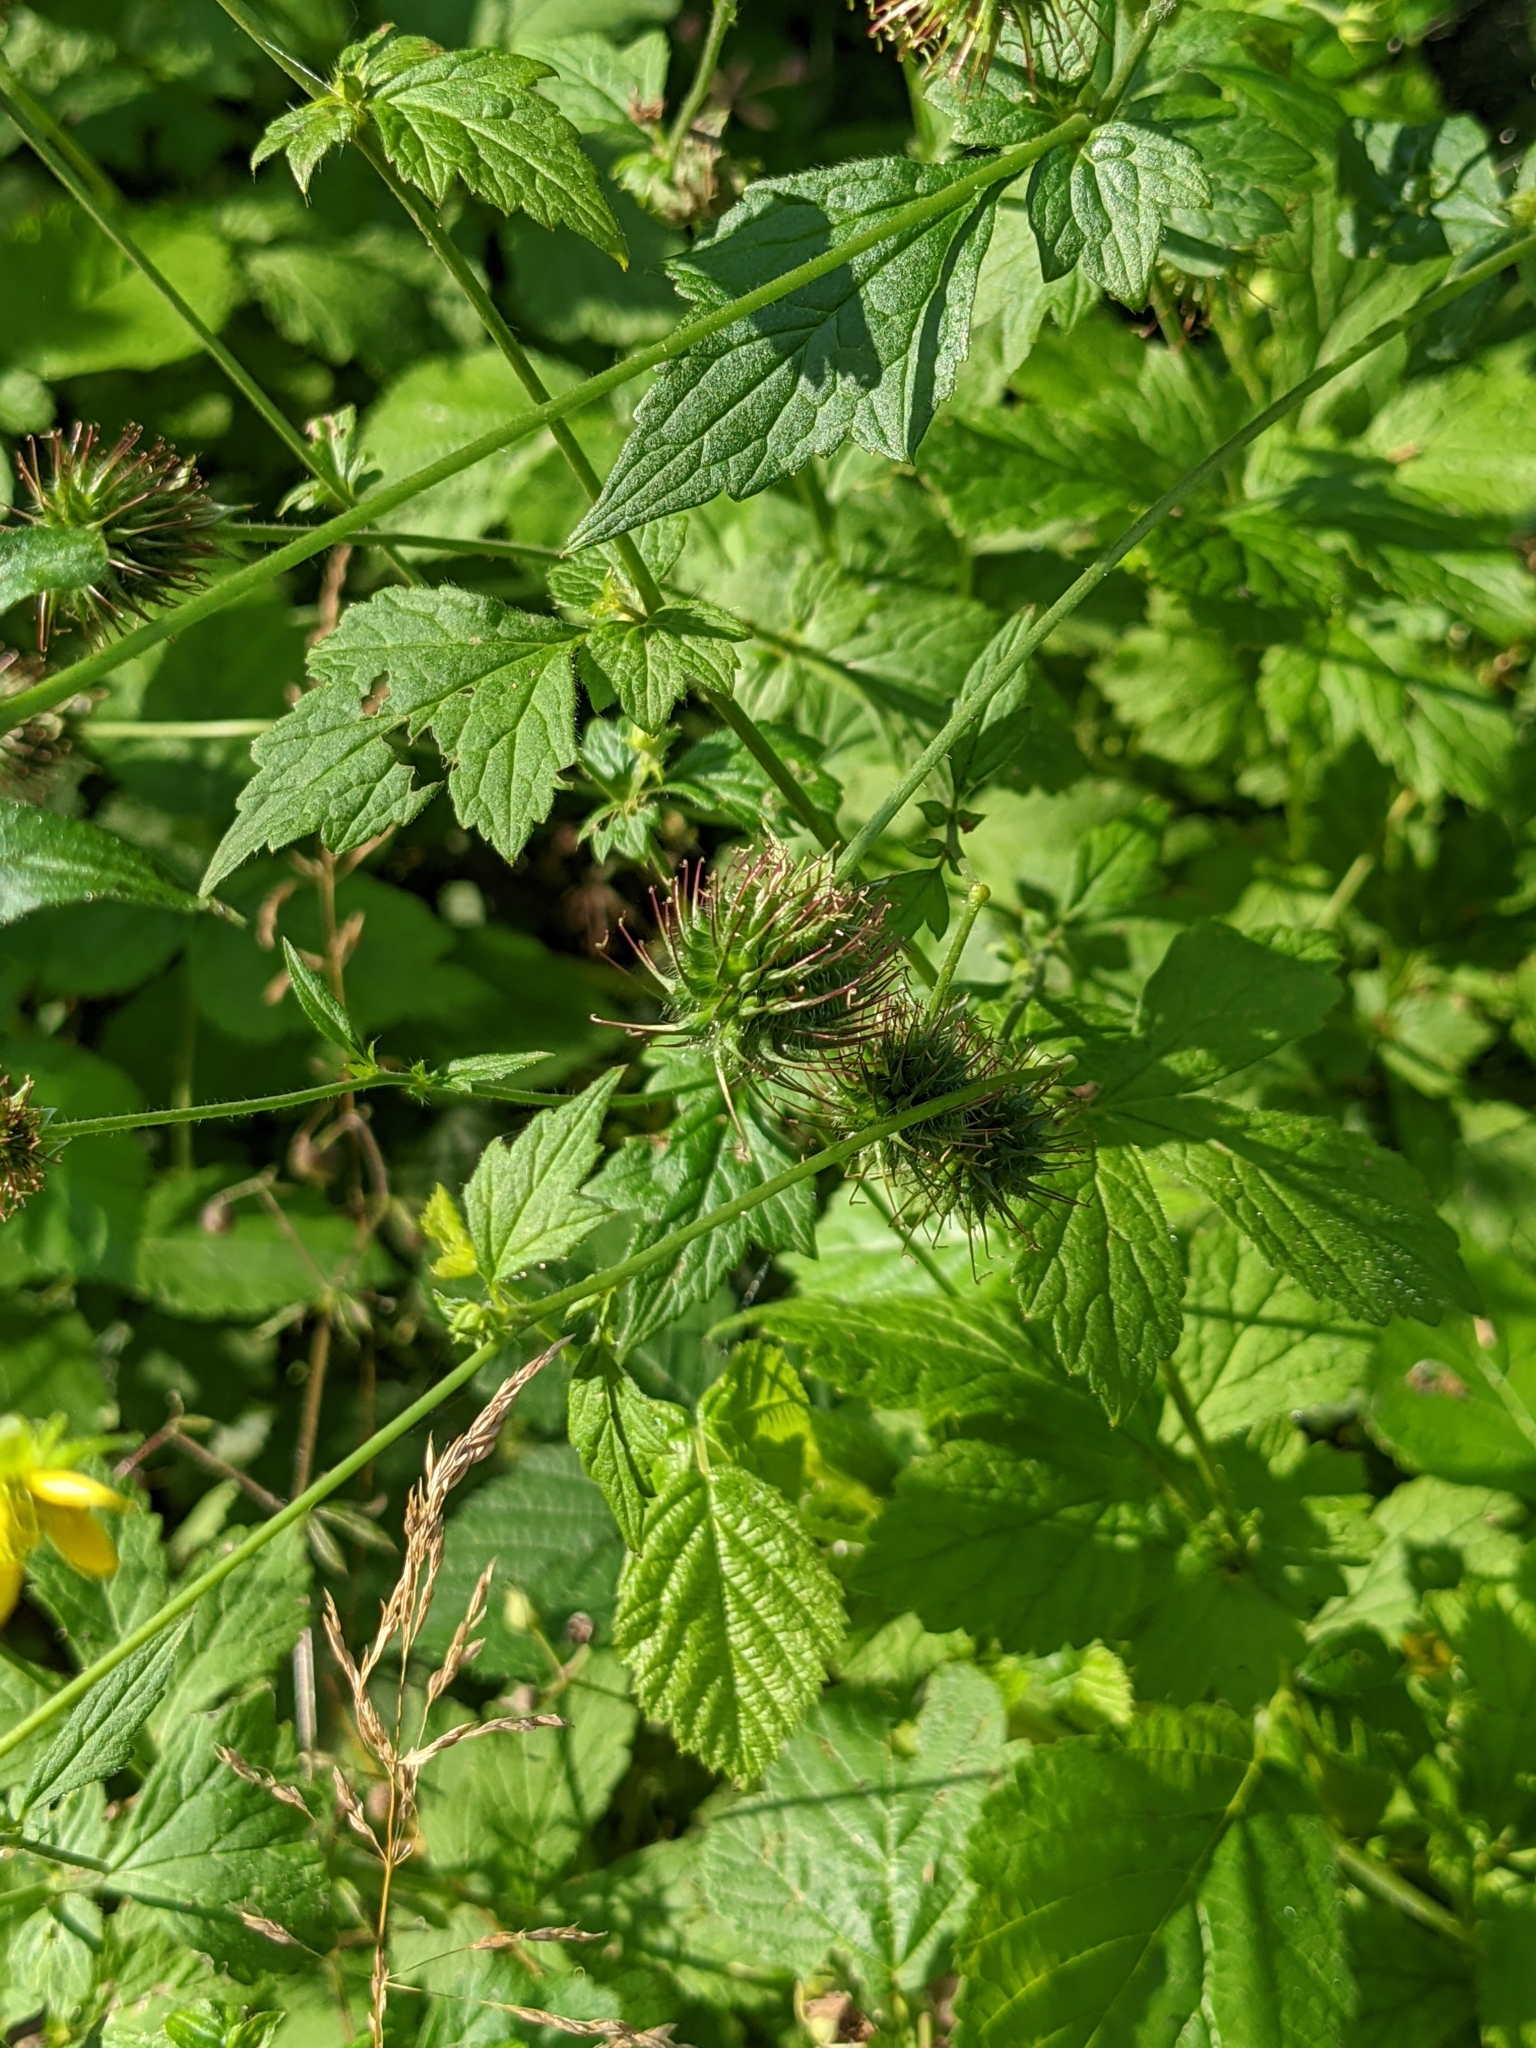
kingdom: Plantae
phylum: Tracheophyta
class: Magnoliopsida
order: Rosales
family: Rosaceae
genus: Geum
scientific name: Geum urbanum
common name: Wood avens
